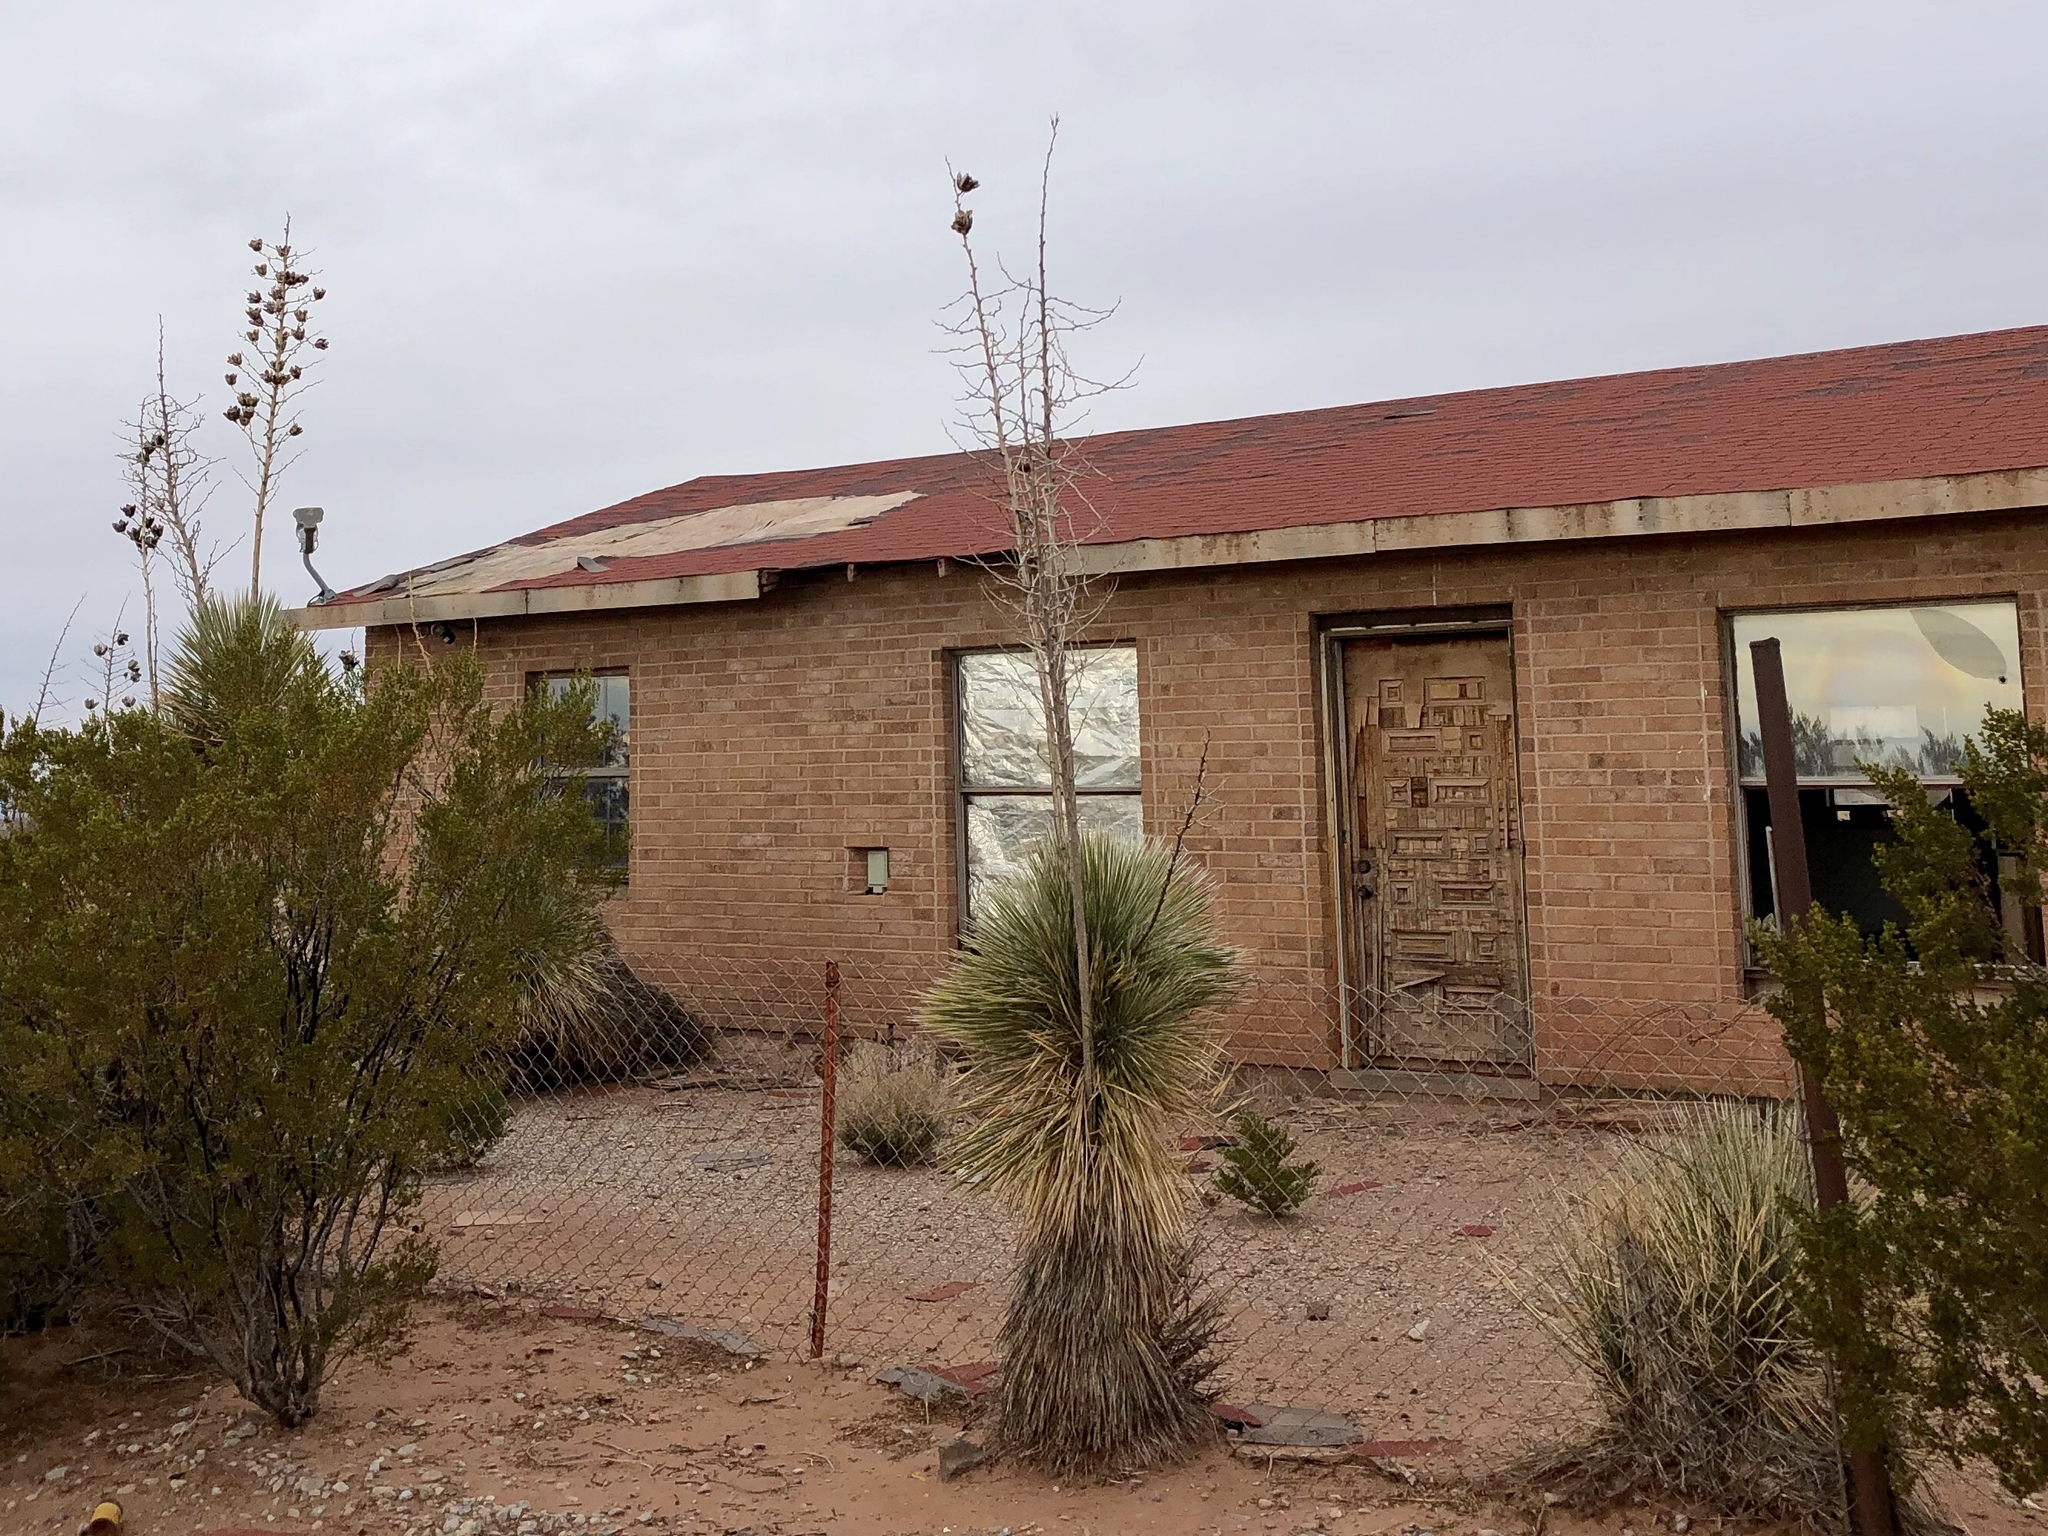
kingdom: Plantae
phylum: Tracheophyta
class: Liliopsida
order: Asparagales
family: Asparagaceae
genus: Yucca
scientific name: Yucca elata
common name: Palmella
